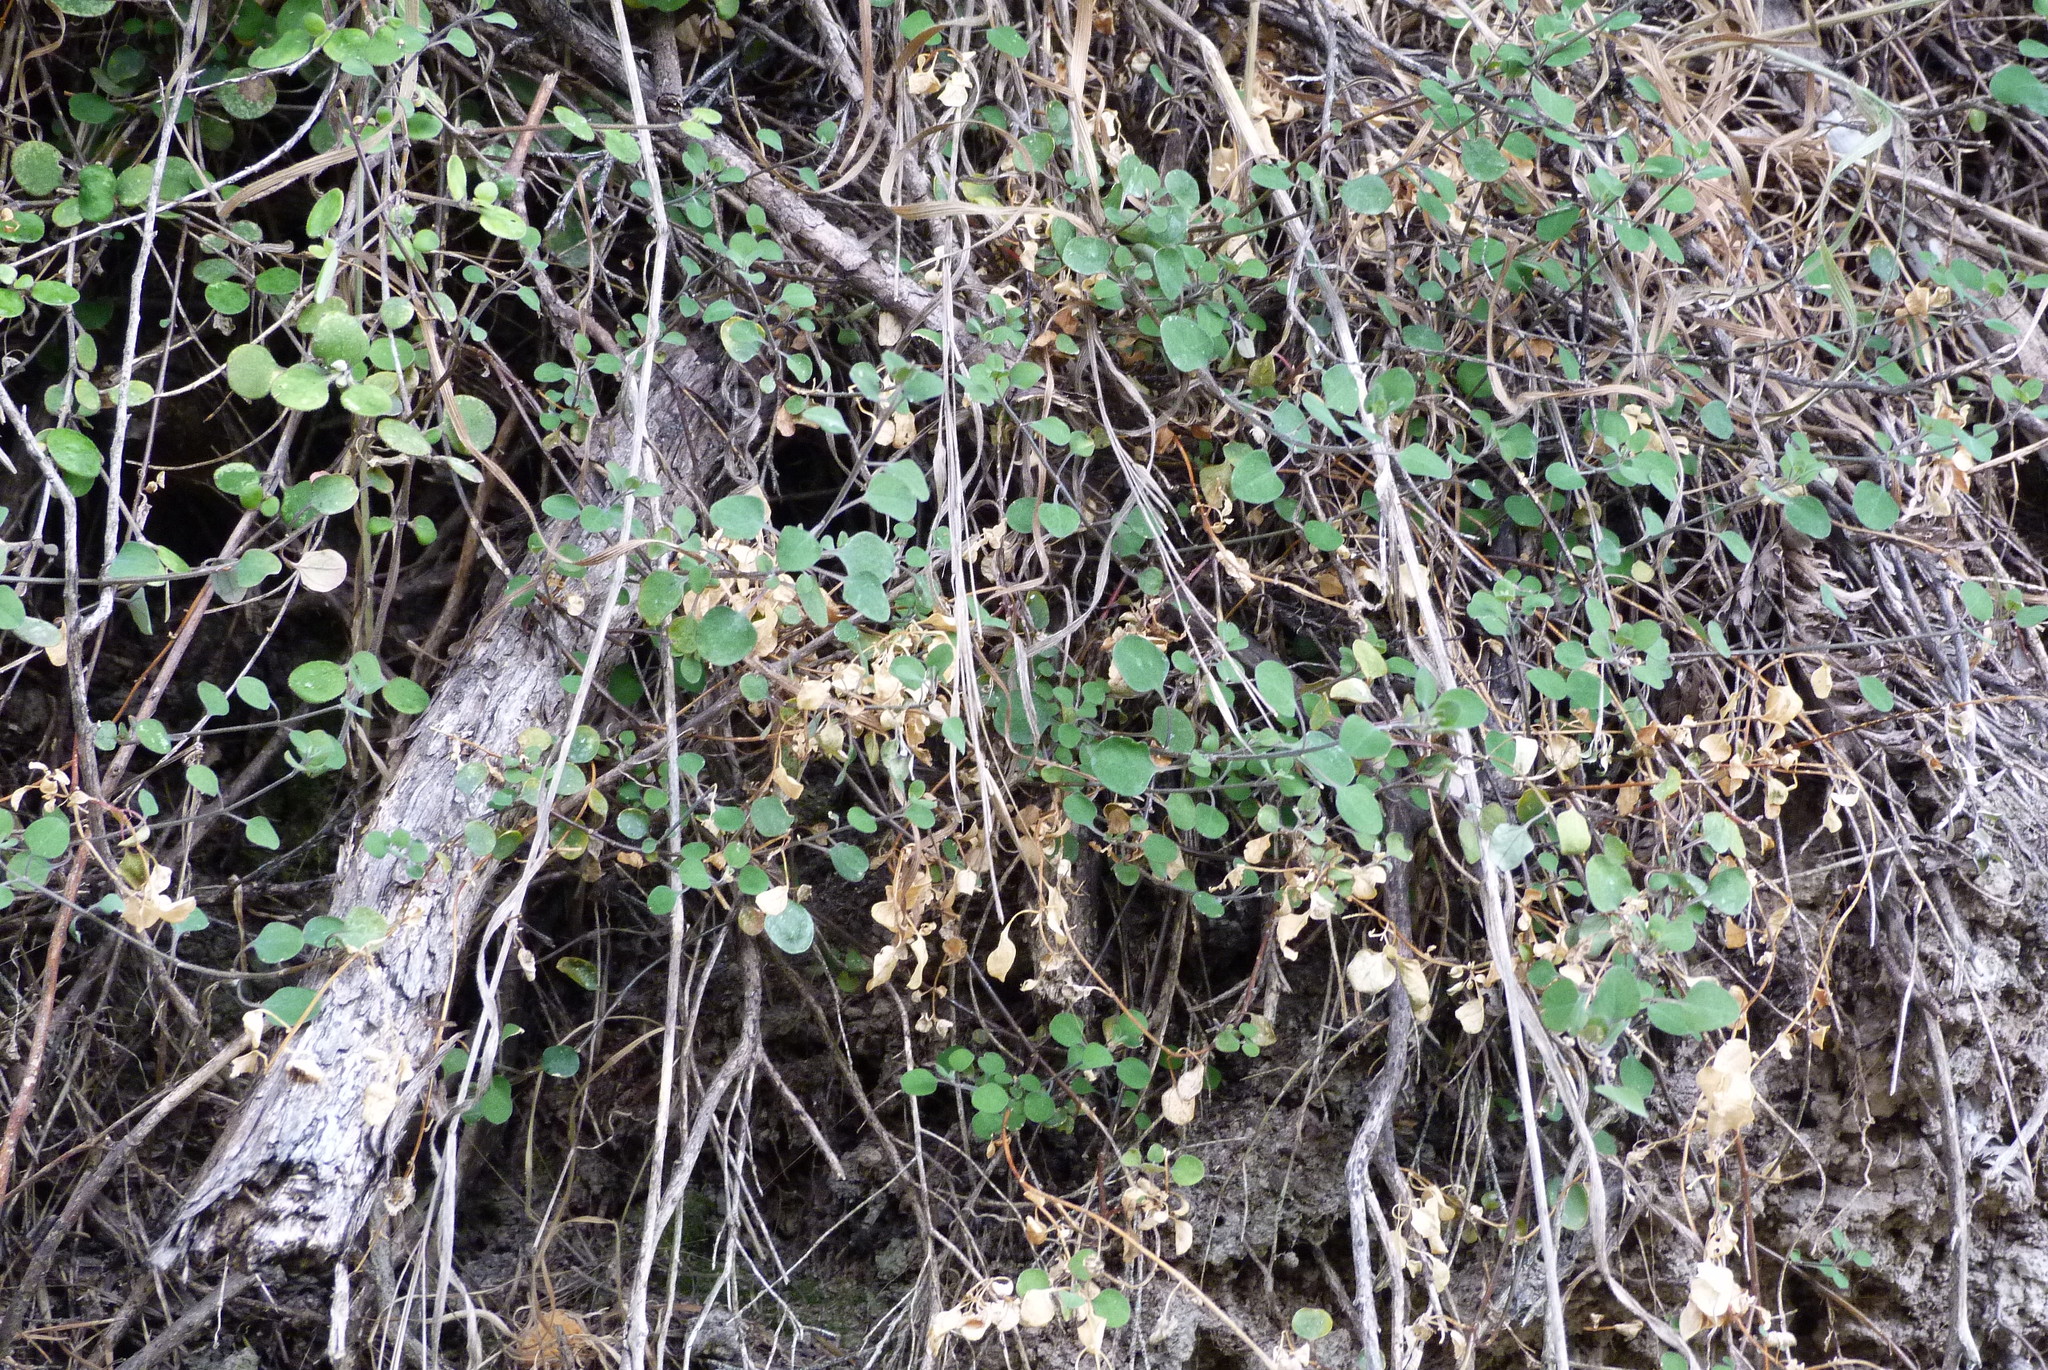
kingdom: Plantae
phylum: Tracheophyta
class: Magnoliopsida
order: Caryophyllales
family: Amaranthaceae
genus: Chenopodium
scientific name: Chenopodium allanii
